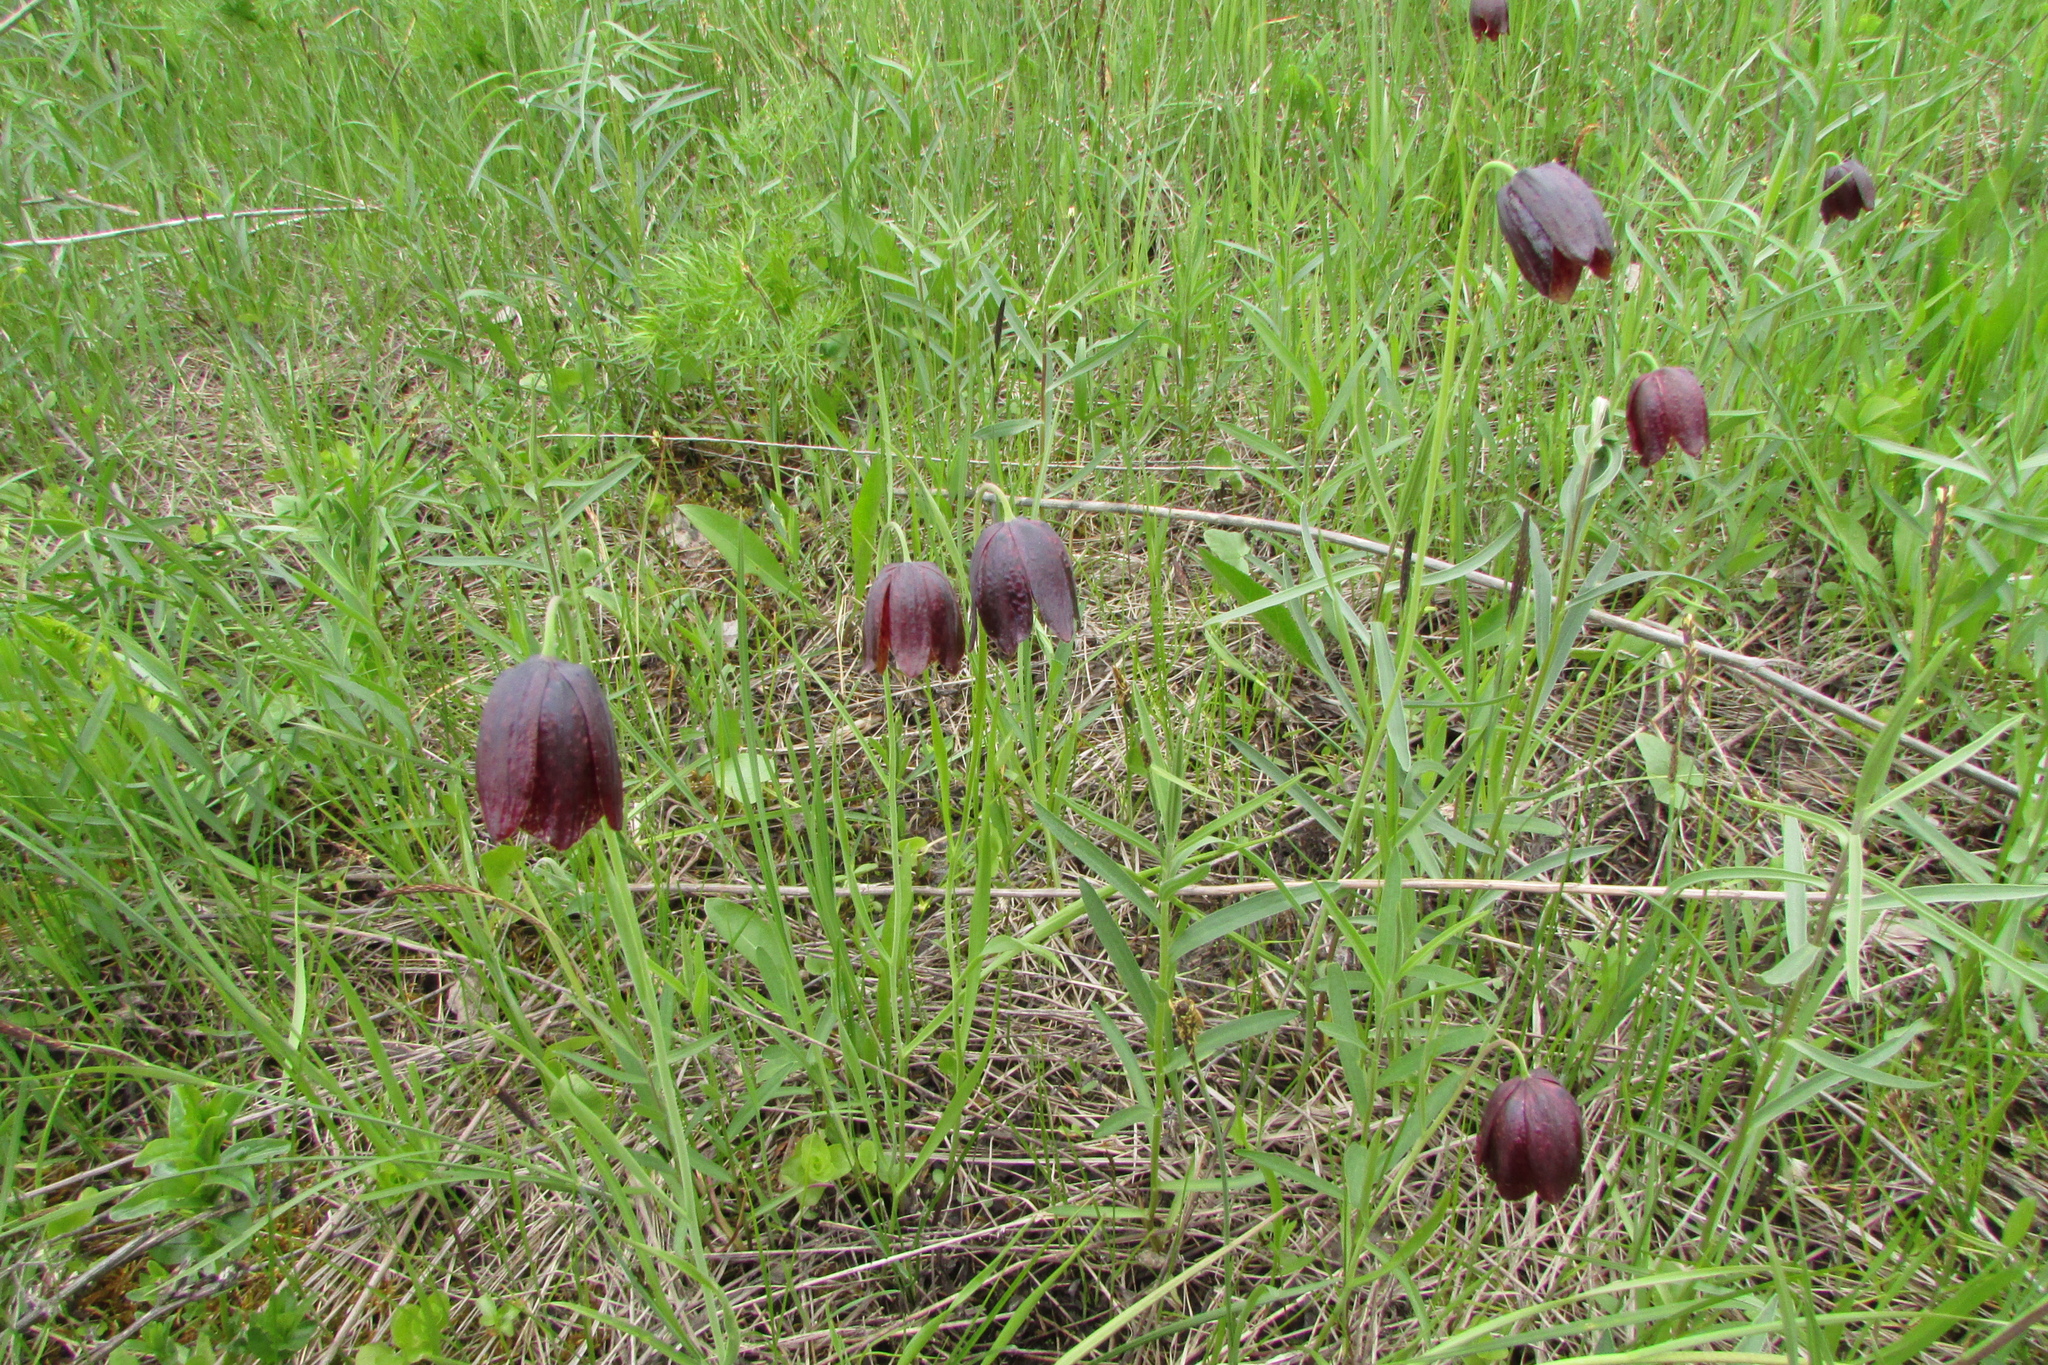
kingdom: Plantae
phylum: Tracheophyta
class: Liliopsida
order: Liliales
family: Liliaceae
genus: Fritillaria
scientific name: Fritillaria meleagroides
